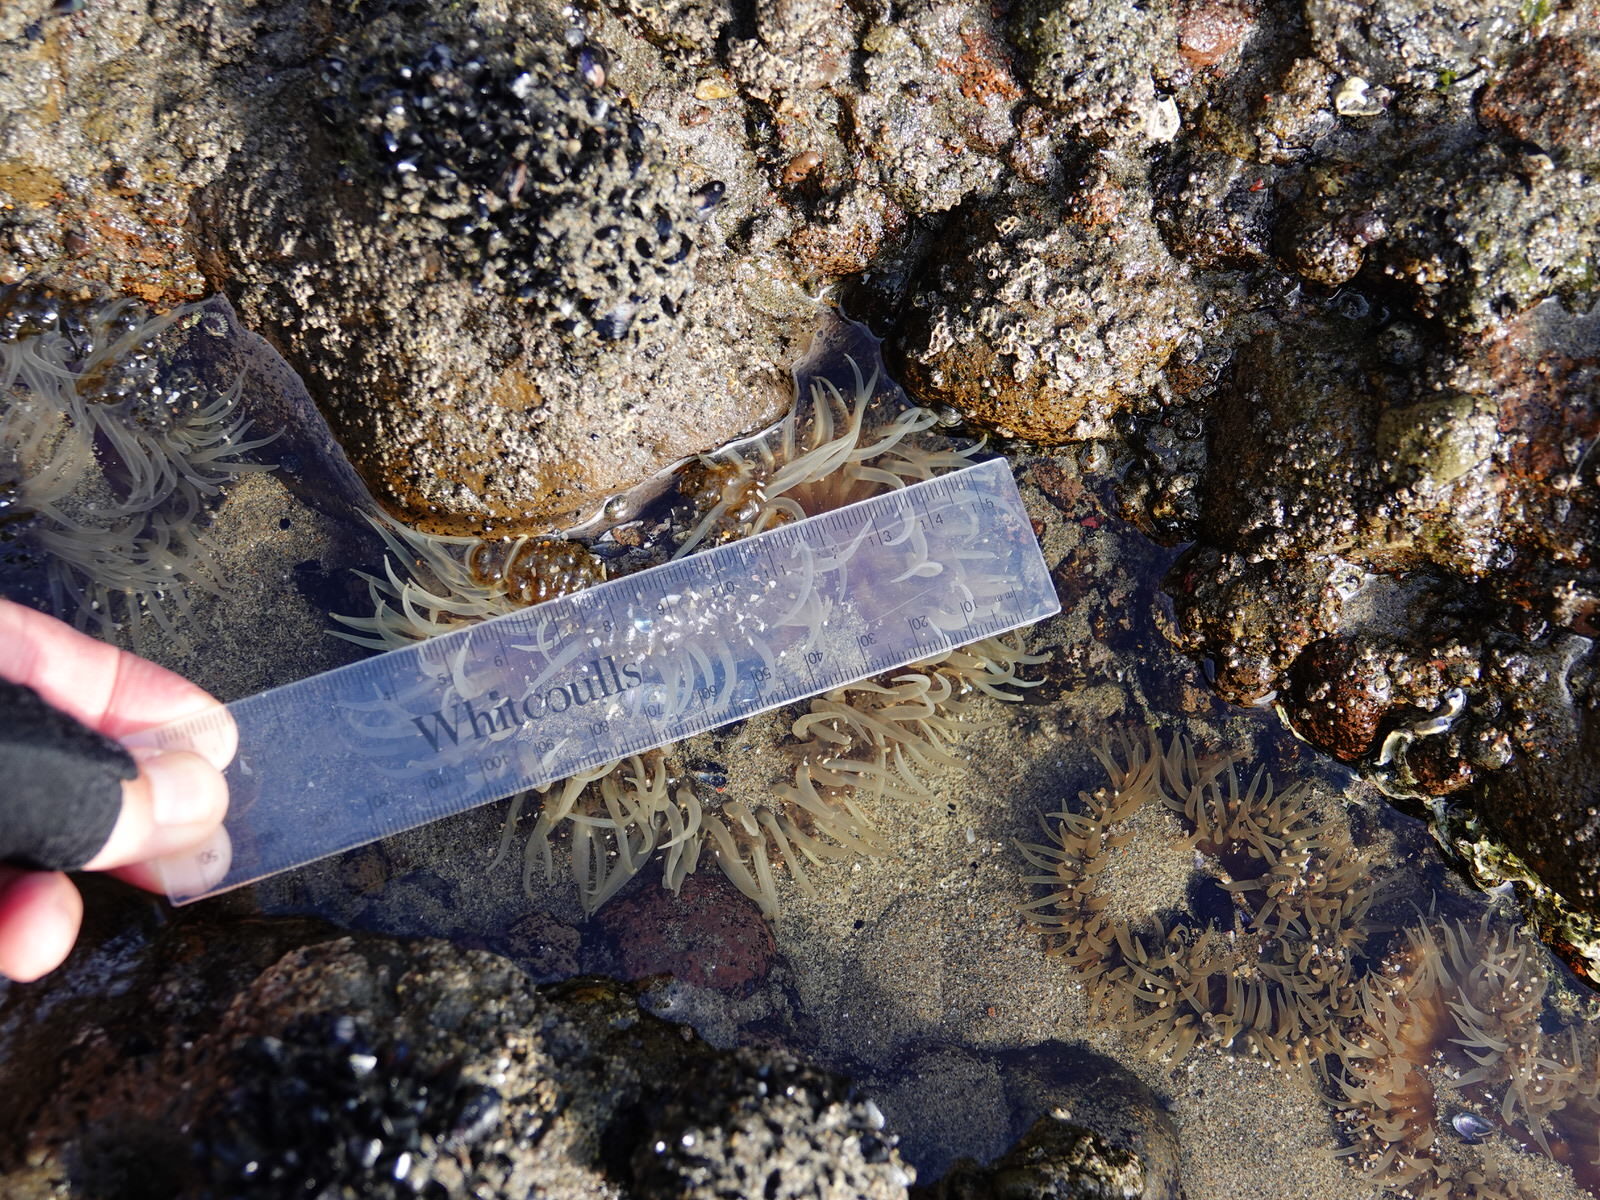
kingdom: Animalia
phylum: Cnidaria
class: Anthozoa
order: Actiniaria
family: Actiniidae
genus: Oulactis
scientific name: Oulactis magna
